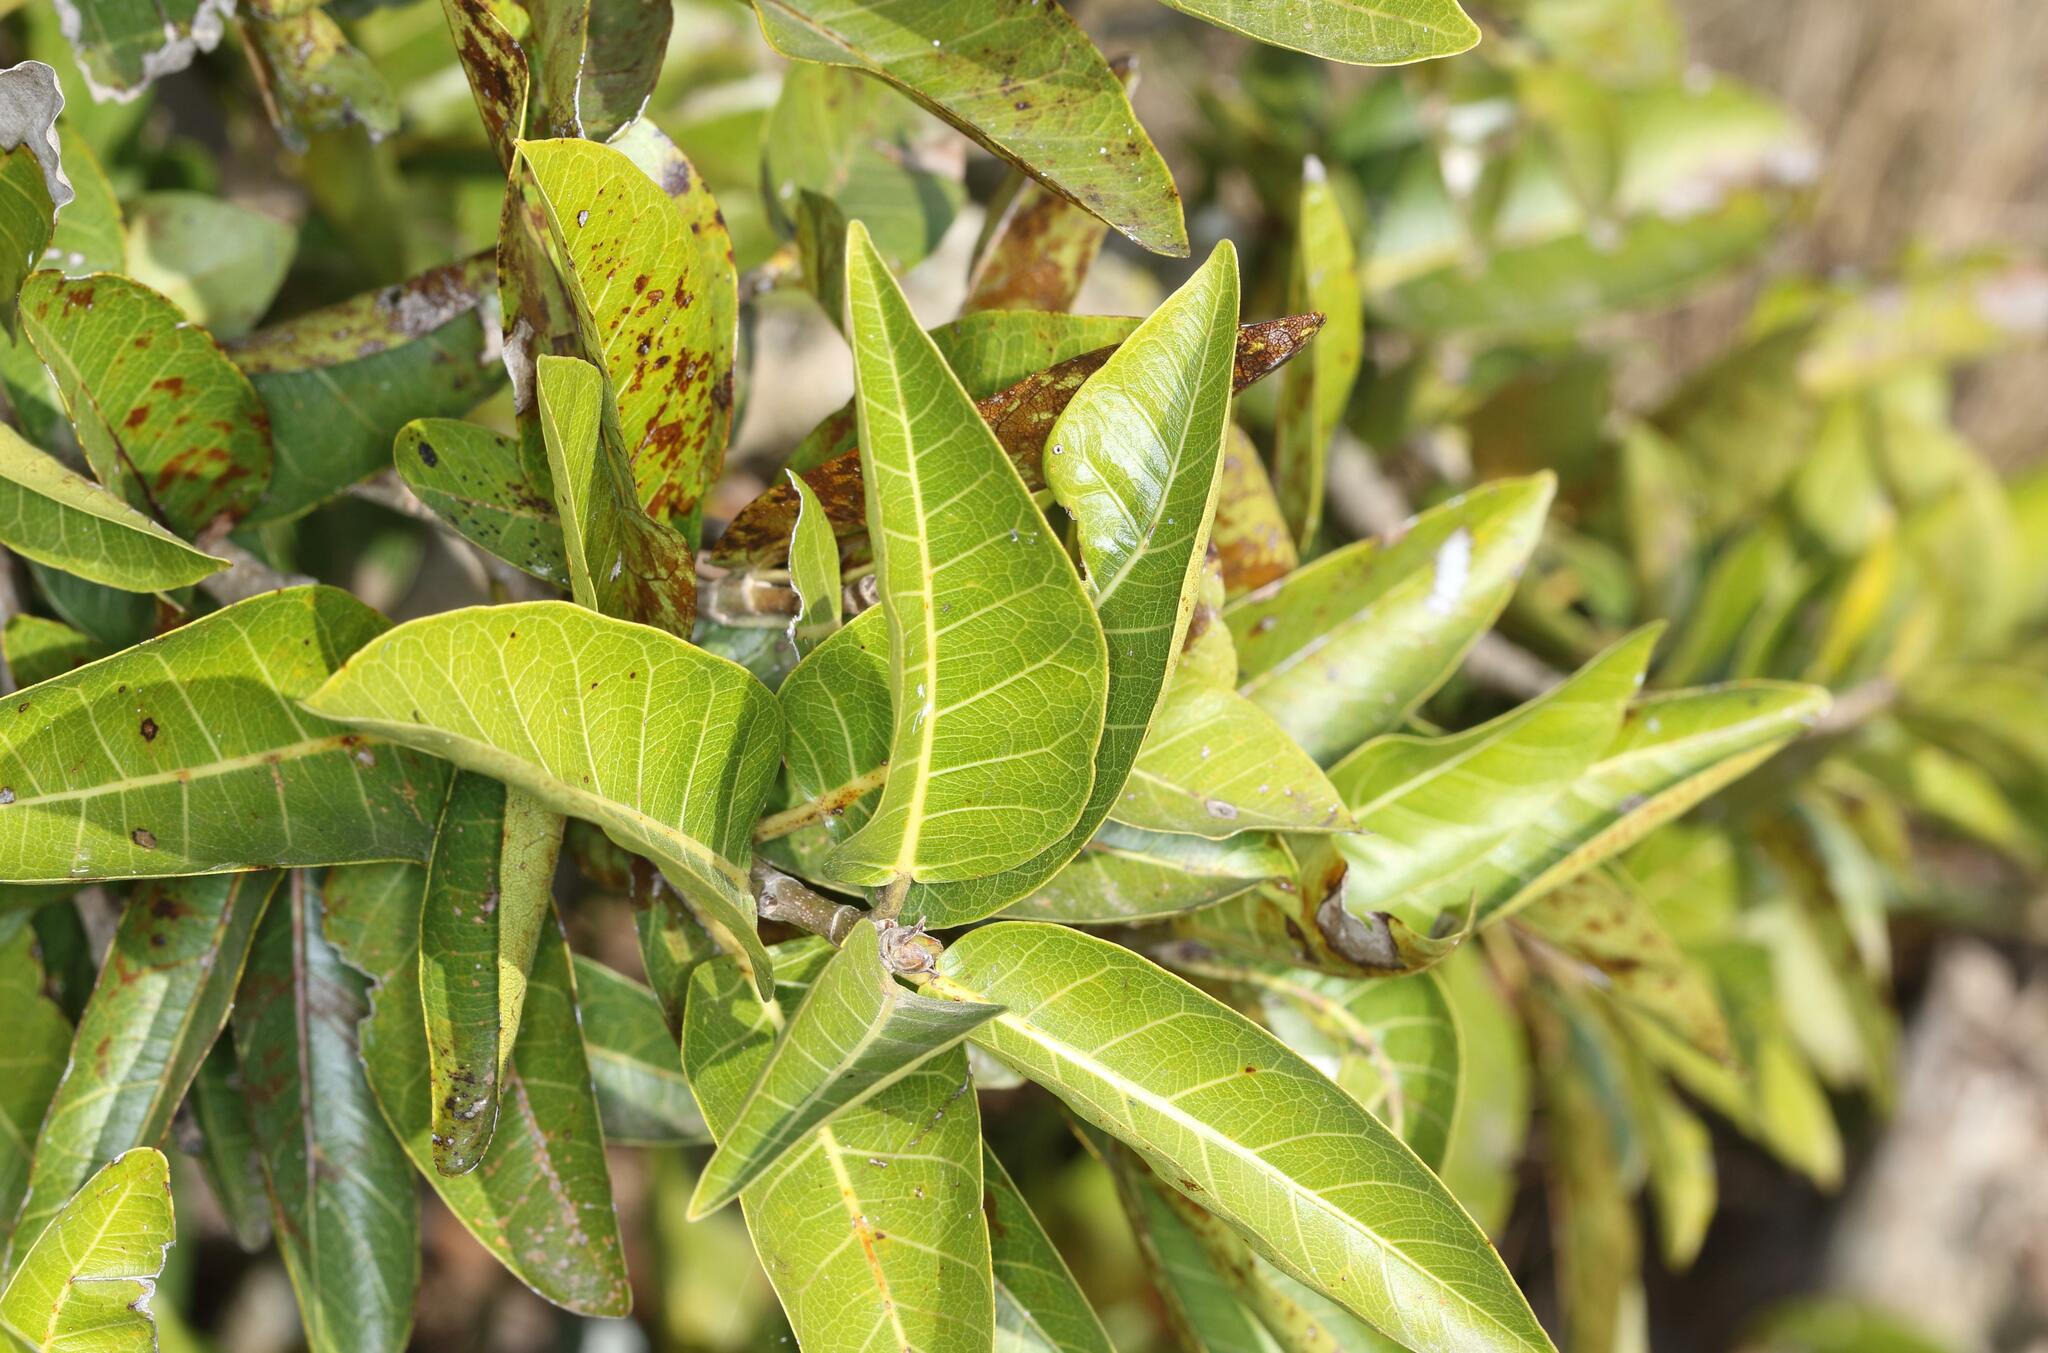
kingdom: Plantae
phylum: Tracheophyta
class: Magnoliopsida
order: Rosales
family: Moraceae
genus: Ficus
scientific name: Ficus ingens
